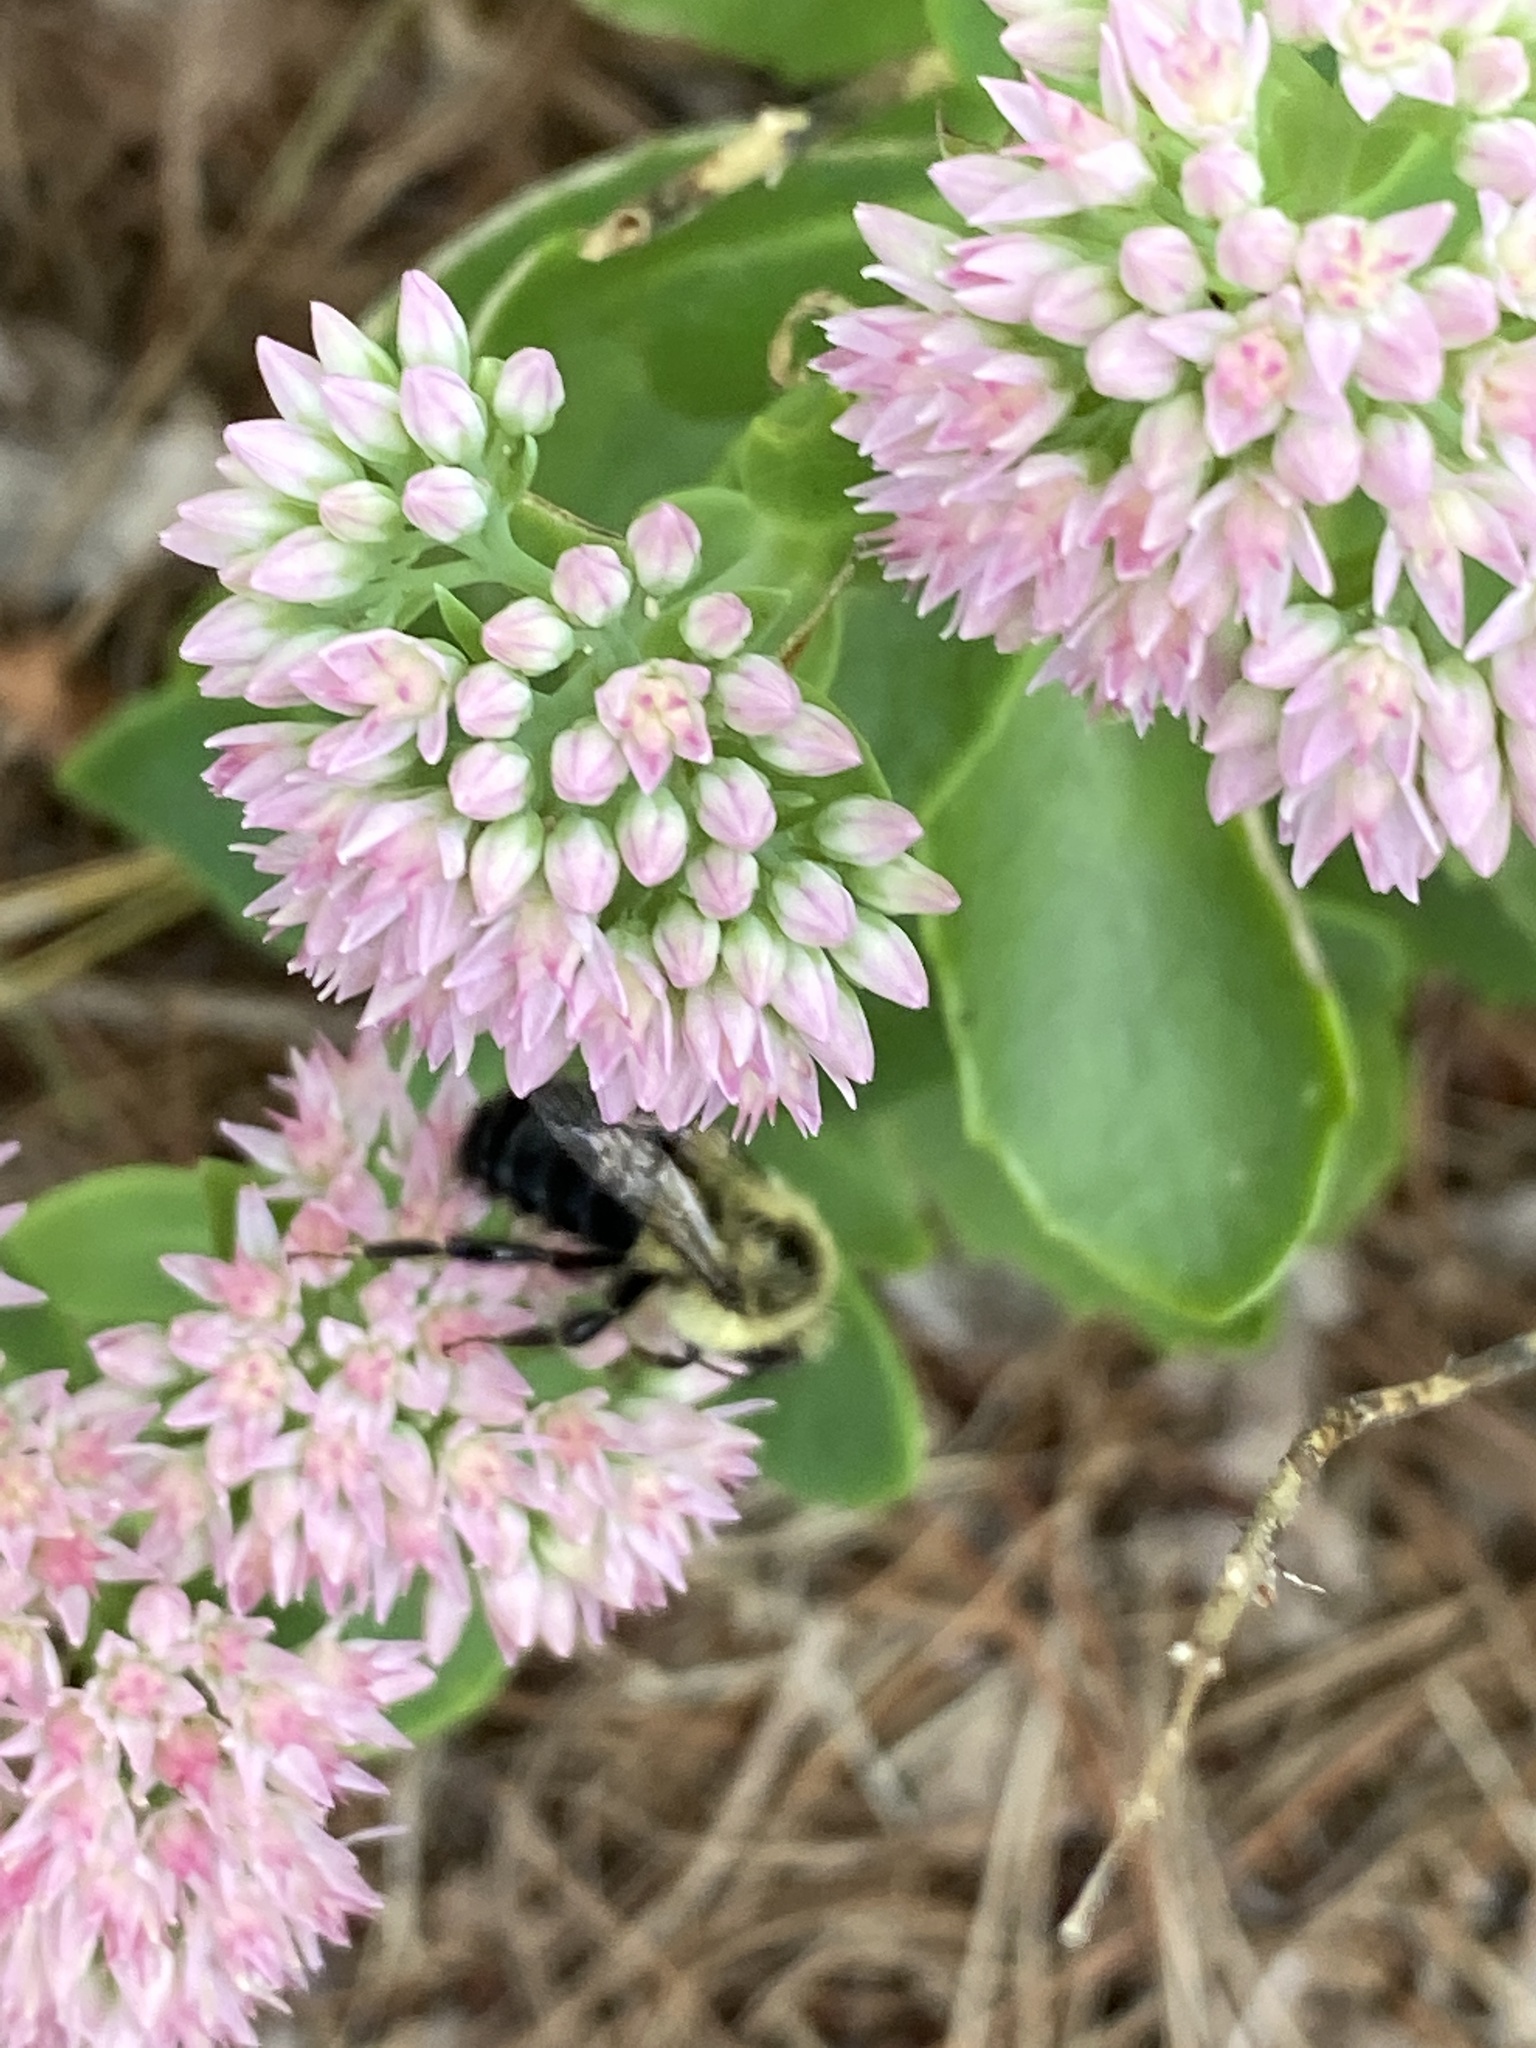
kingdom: Animalia
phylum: Arthropoda
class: Insecta
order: Hymenoptera
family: Apidae
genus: Bombus
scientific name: Bombus impatiens
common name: Common eastern bumble bee
